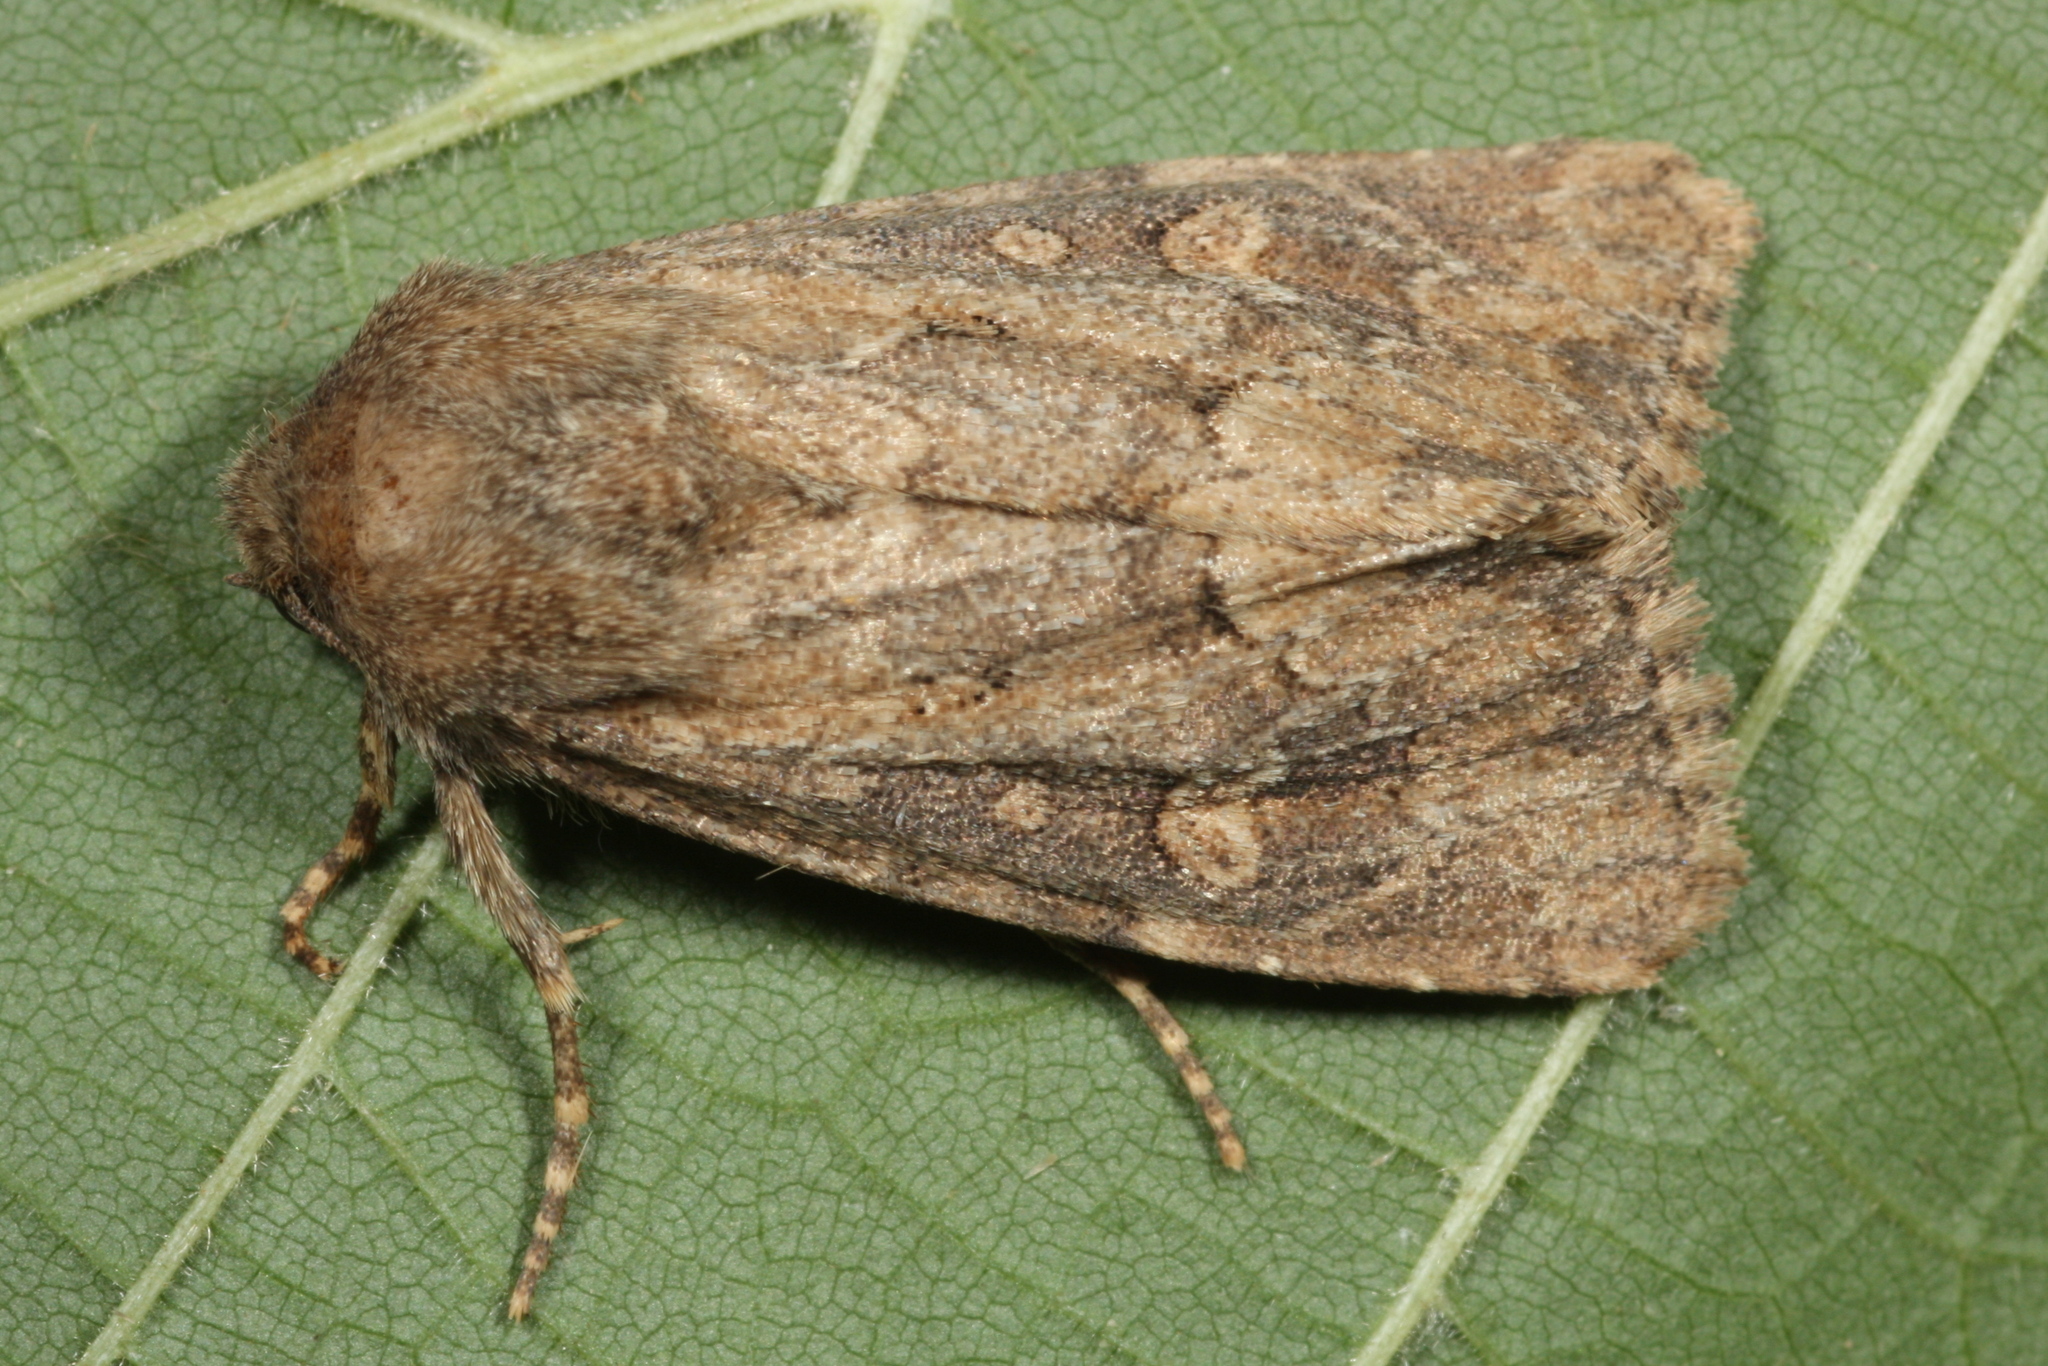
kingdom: Animalia
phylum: Arthropoda
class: Insecta
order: Lepidoptera
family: Noctuidae
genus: Luperina
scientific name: Luperina testacea
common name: Flounced rustic
